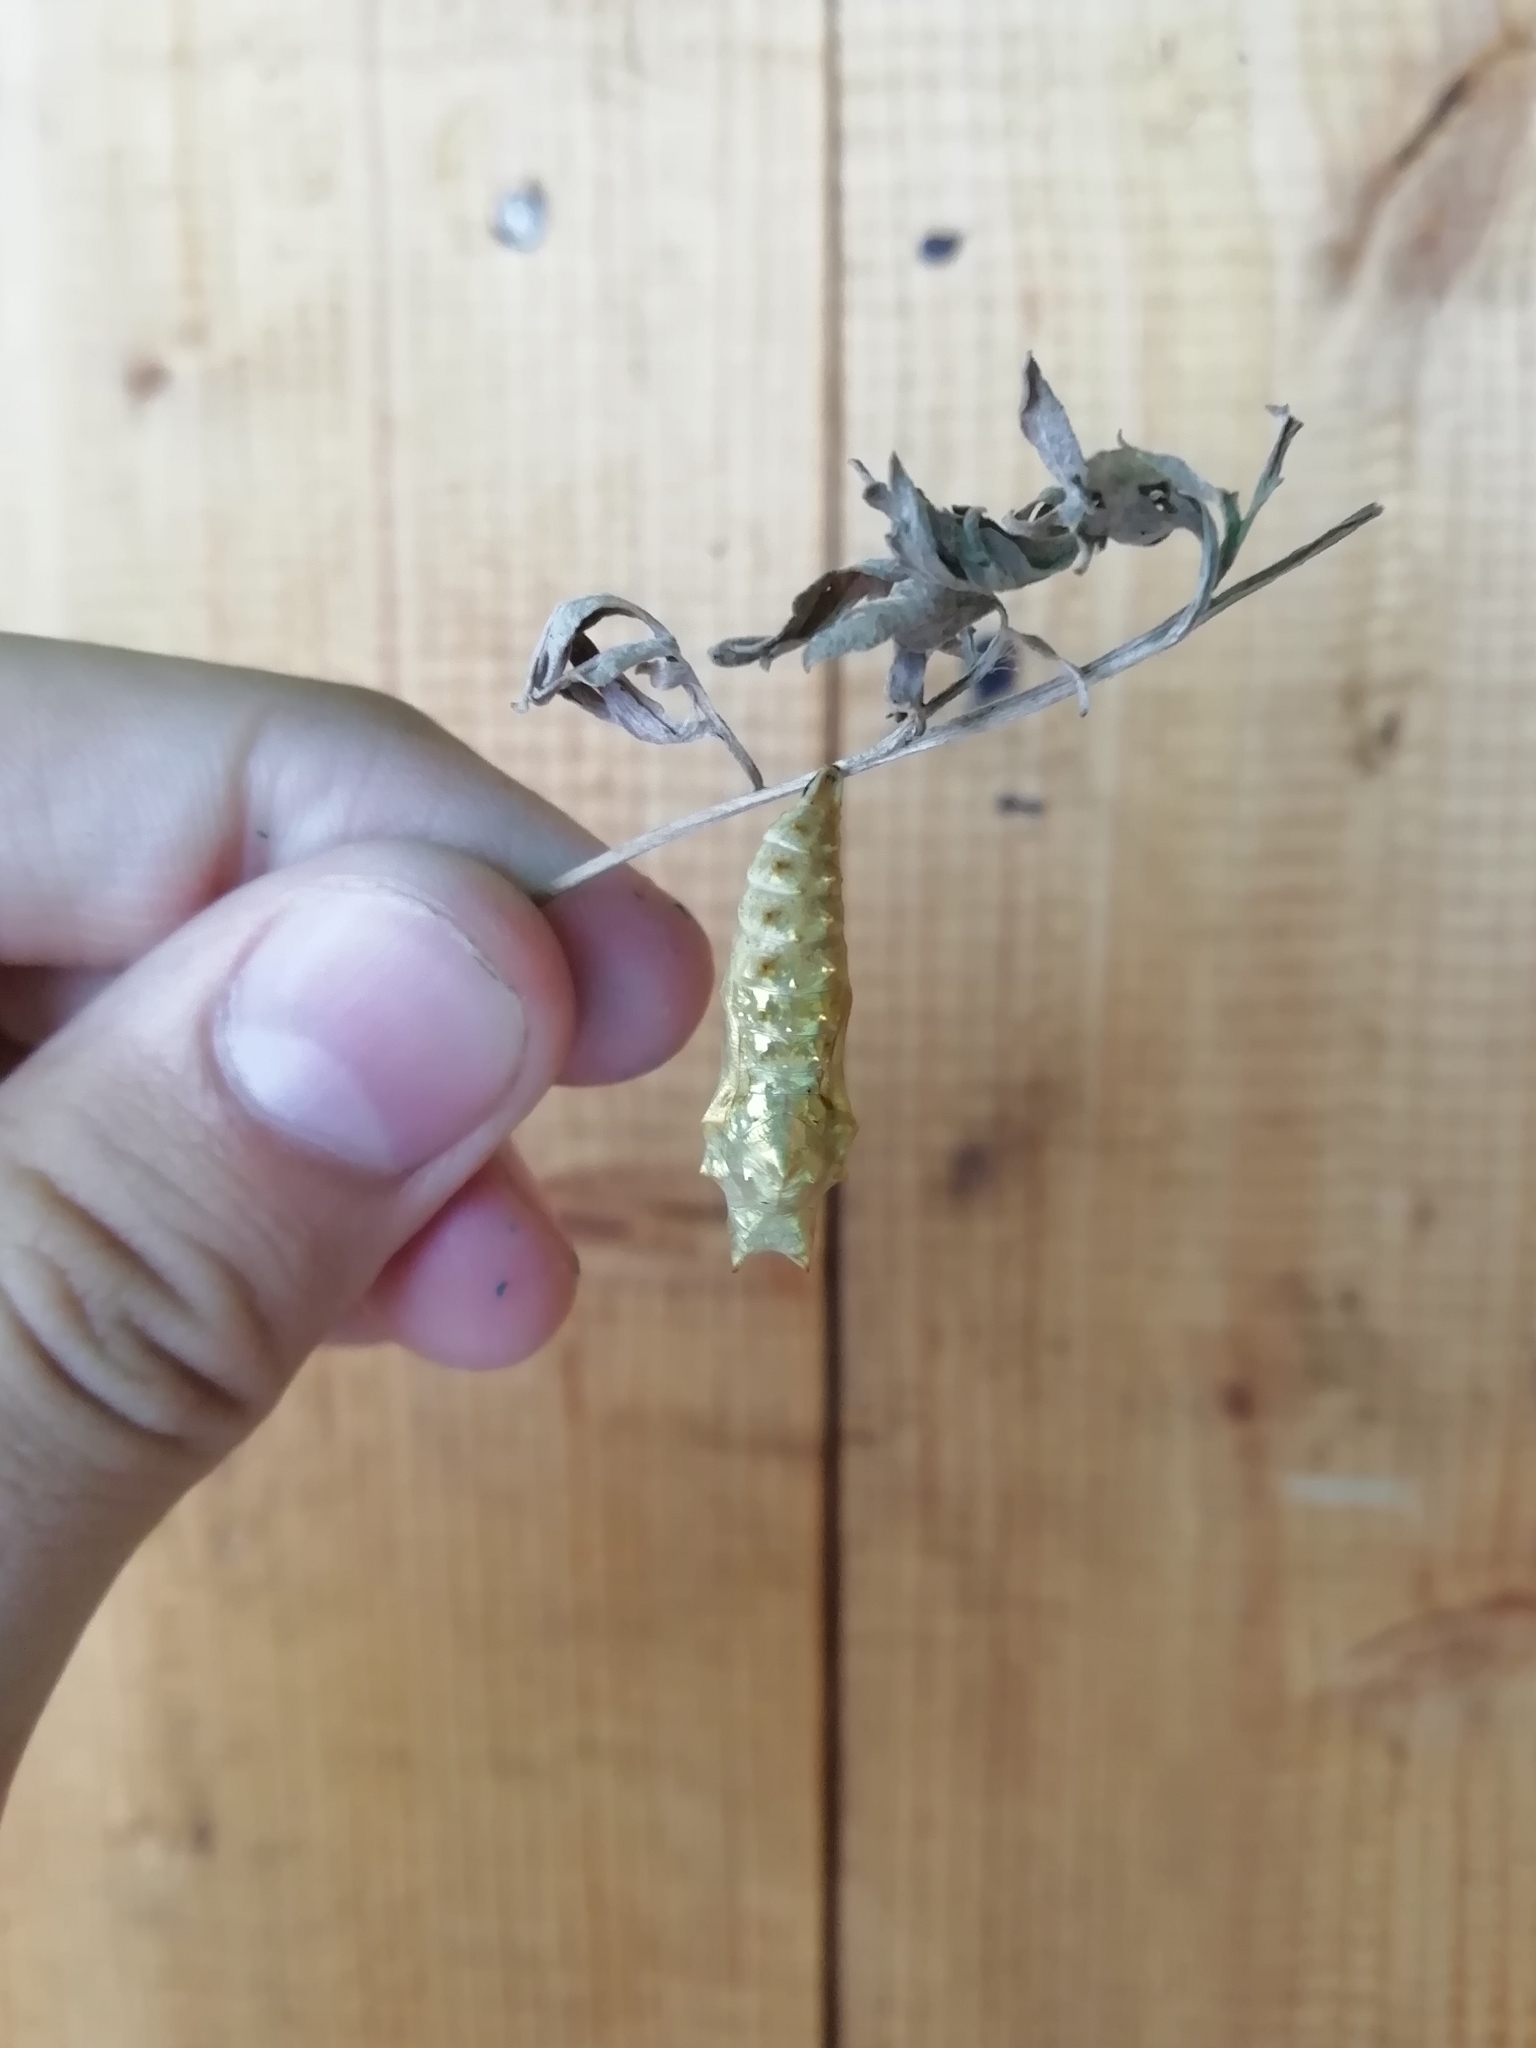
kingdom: Animalia
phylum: Arthropoda
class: Insecta
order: Lepidoptera
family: Nymphalidae
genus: Aglais
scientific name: Aglais urticae
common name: Small tortoiseshell
